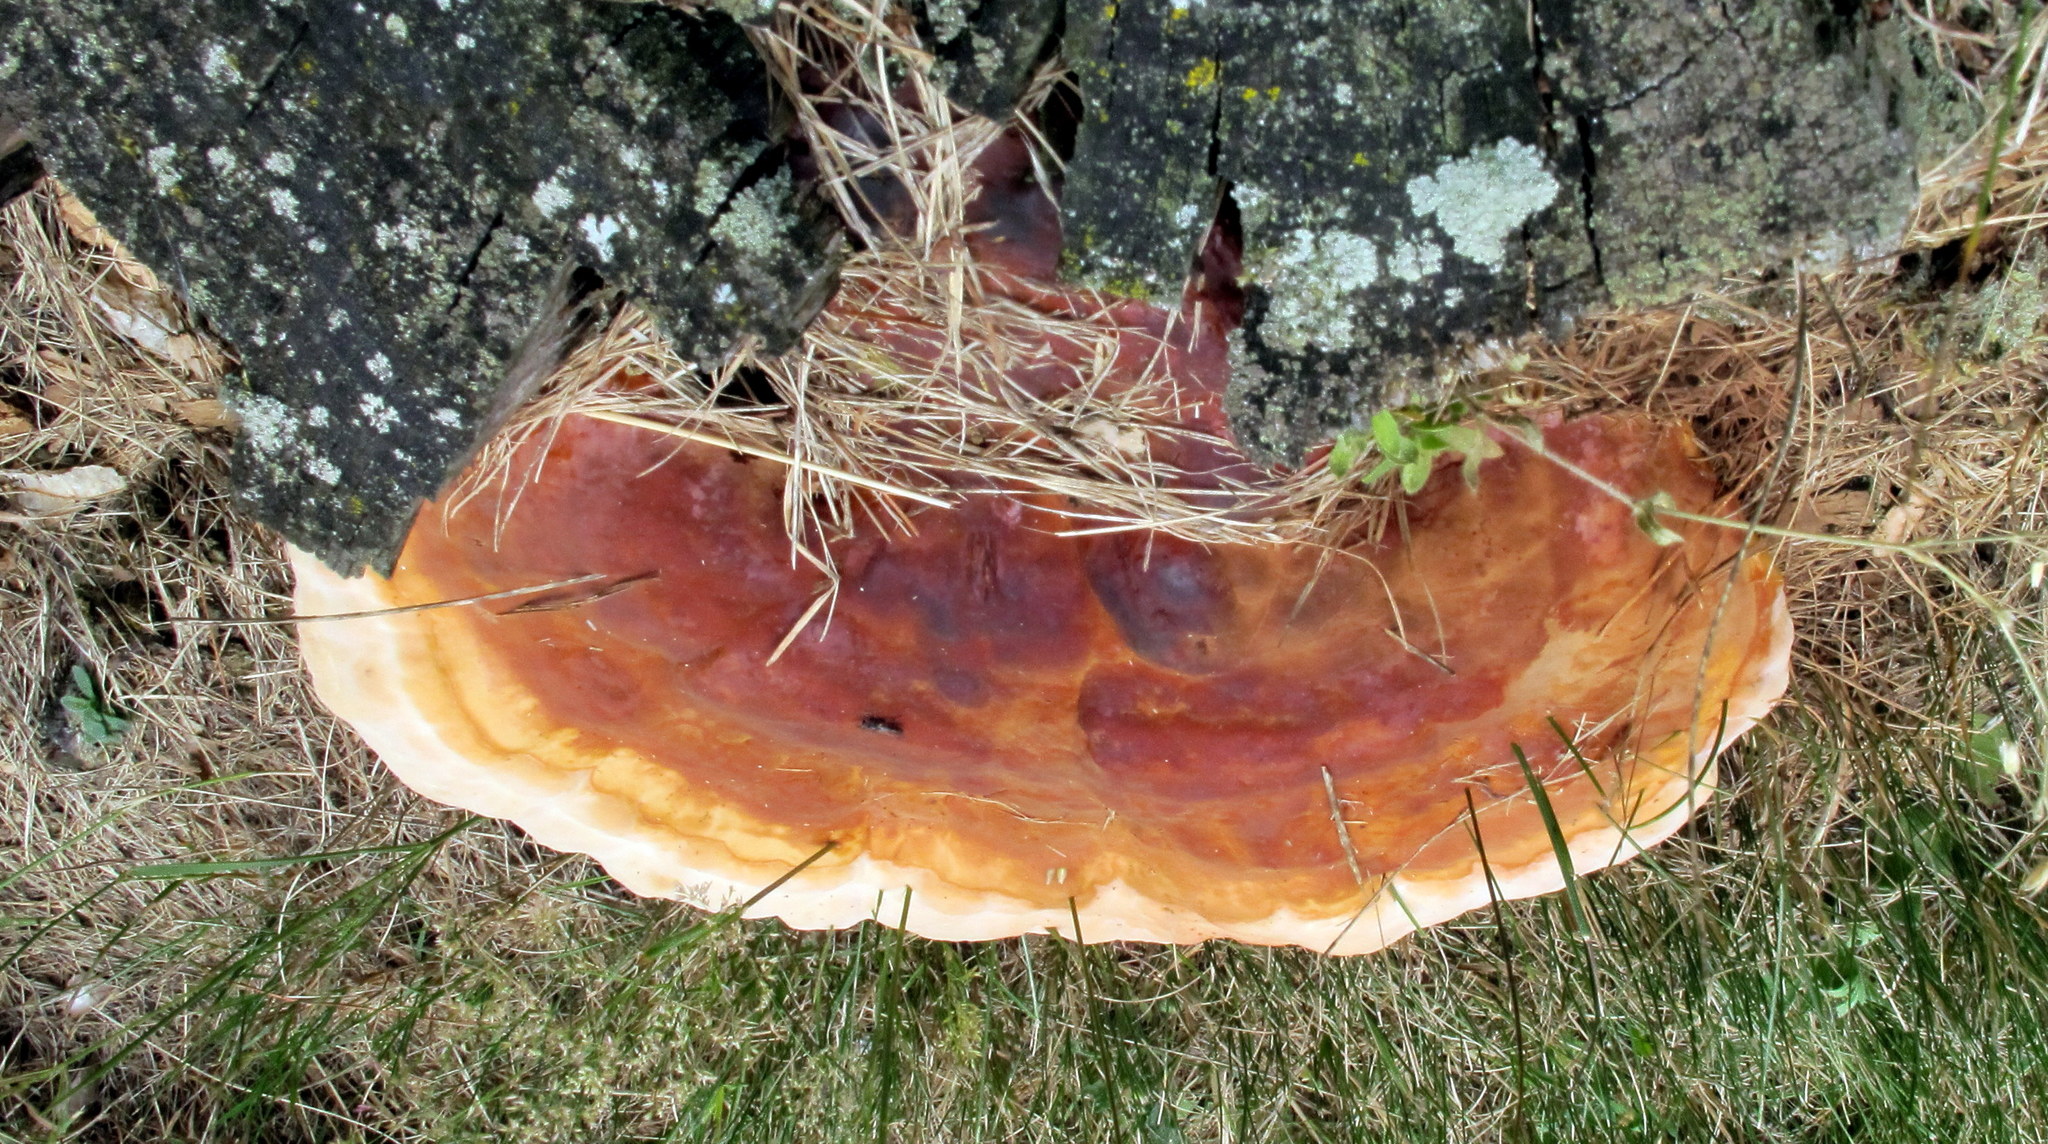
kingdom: Fungi
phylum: Basidiomycota
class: Agaricomycetes
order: Polyporales
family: Polyporaceae
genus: Ganoderma
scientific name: Ganoderma resinaceum
